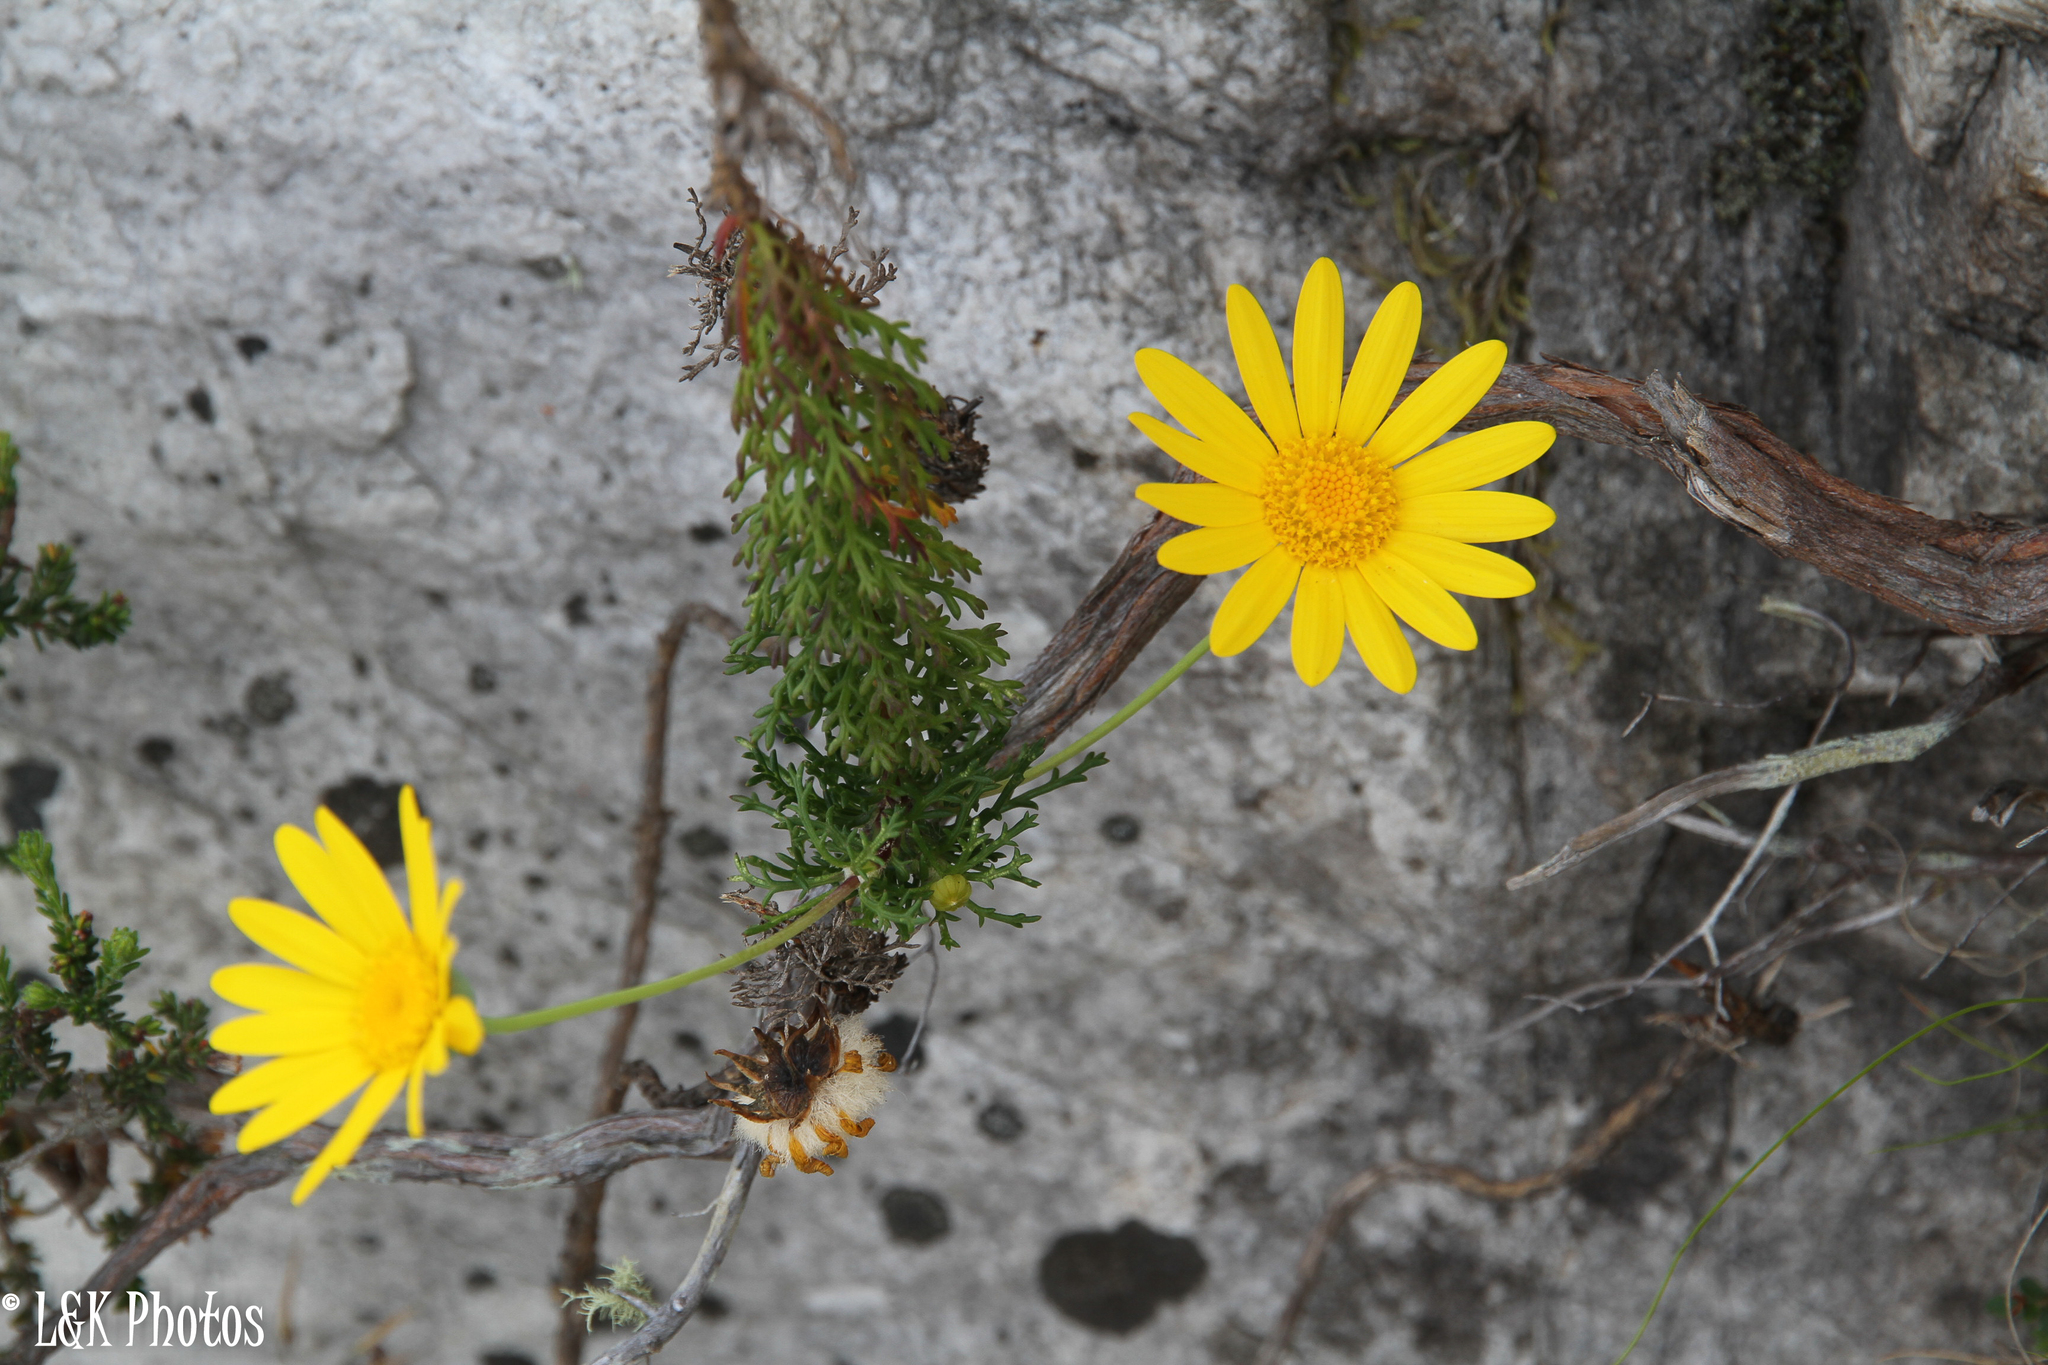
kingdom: Plantae
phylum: Tracheophyta
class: Magnoliopsida
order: Asterales
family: Asteraceae
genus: Euryops
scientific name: Euryops abrotanifolius
